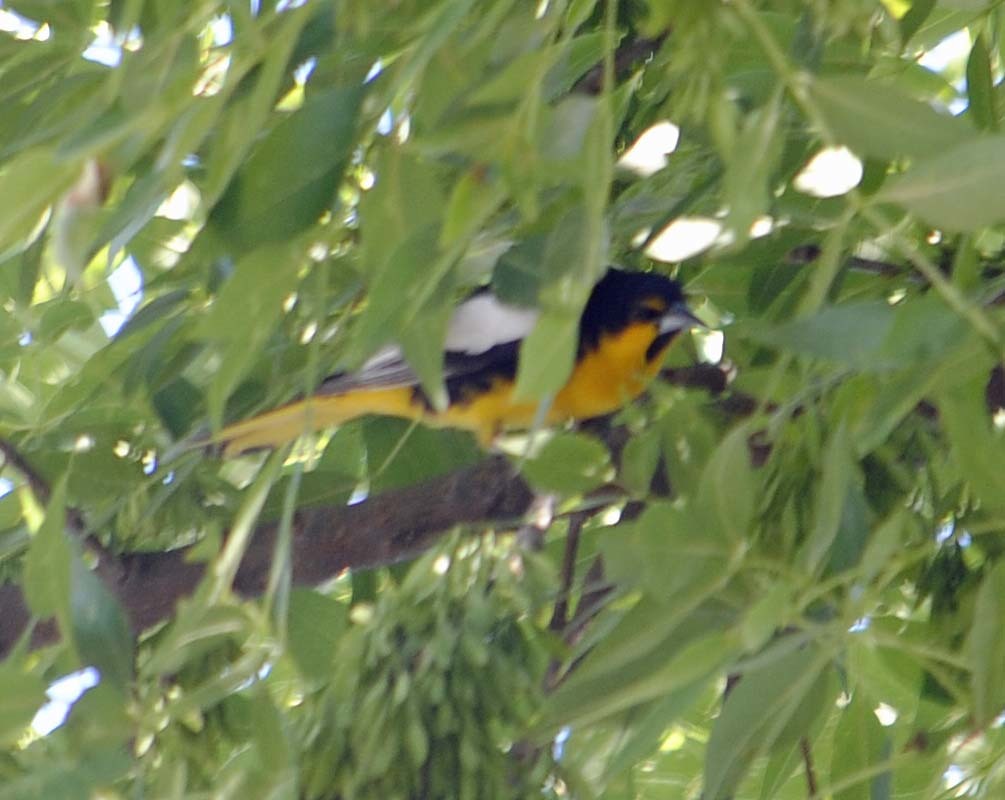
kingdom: Animalia
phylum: Chordata
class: Aves
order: Passeriformes
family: Icteridae
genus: Icterus
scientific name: Icterus abeillei
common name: Black-backed oriole
